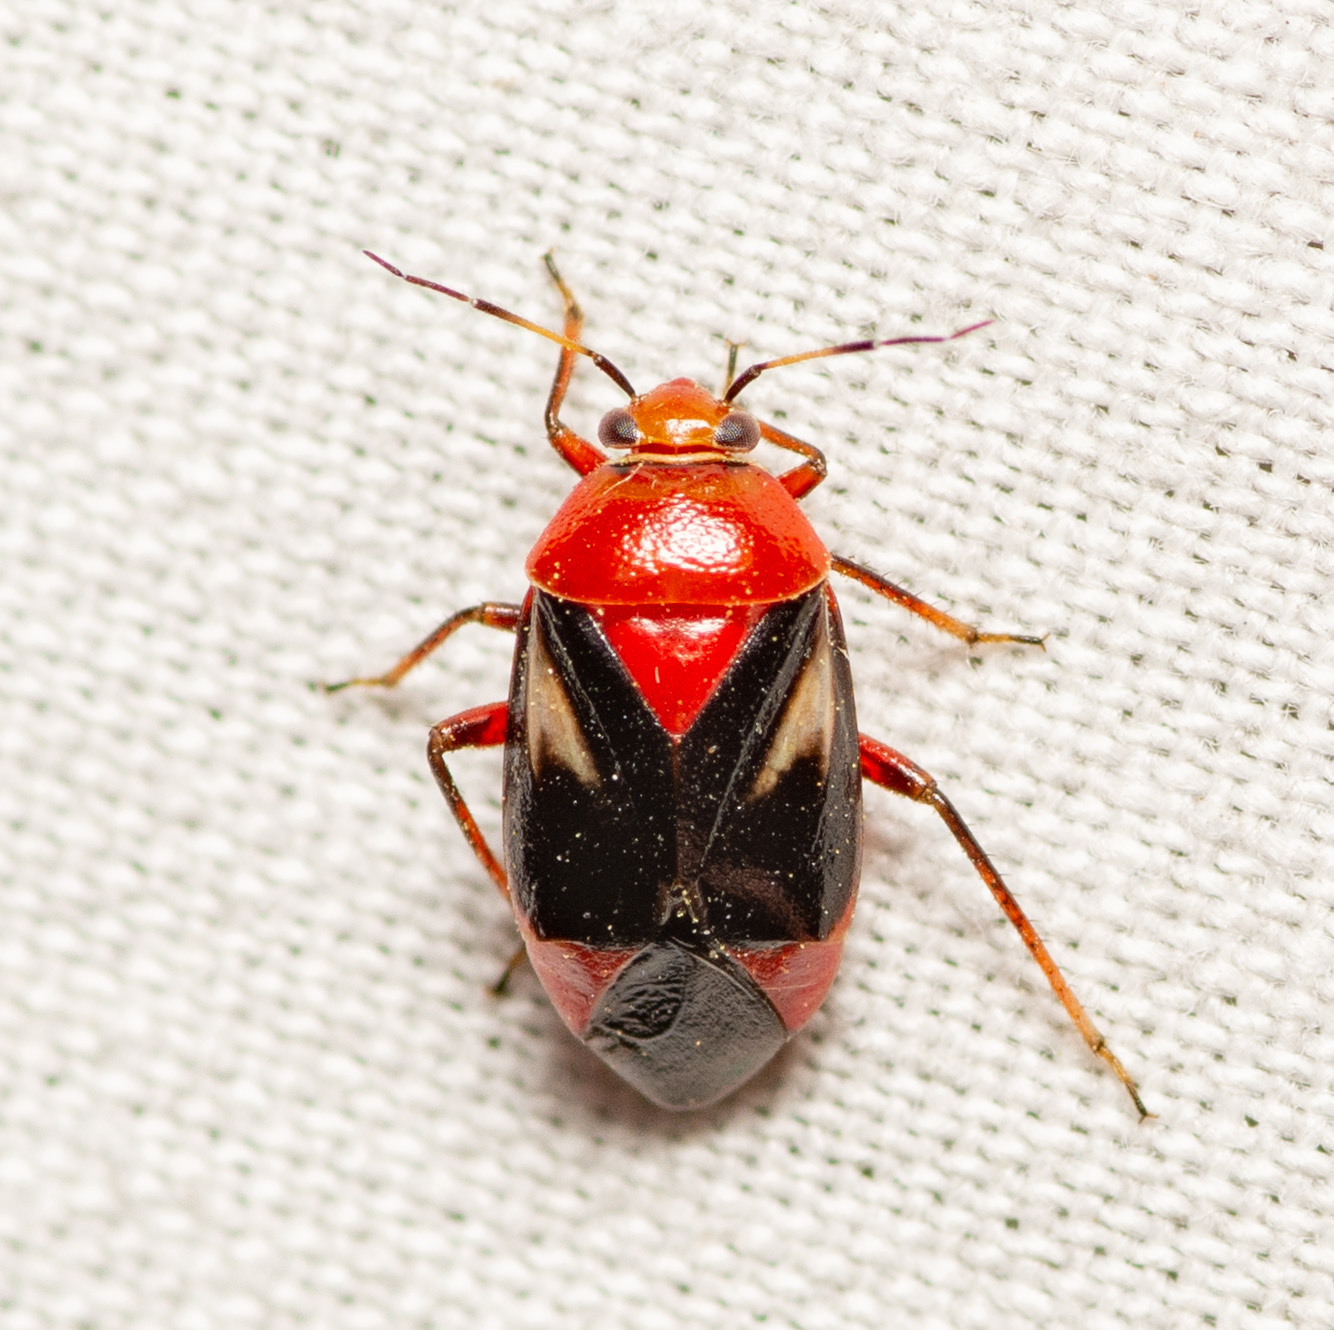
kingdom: Animalia
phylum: Arthropoda
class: Insecta
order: Hemiptera
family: Miridae
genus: Neocapsus
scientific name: Neocapsus cuneatus
